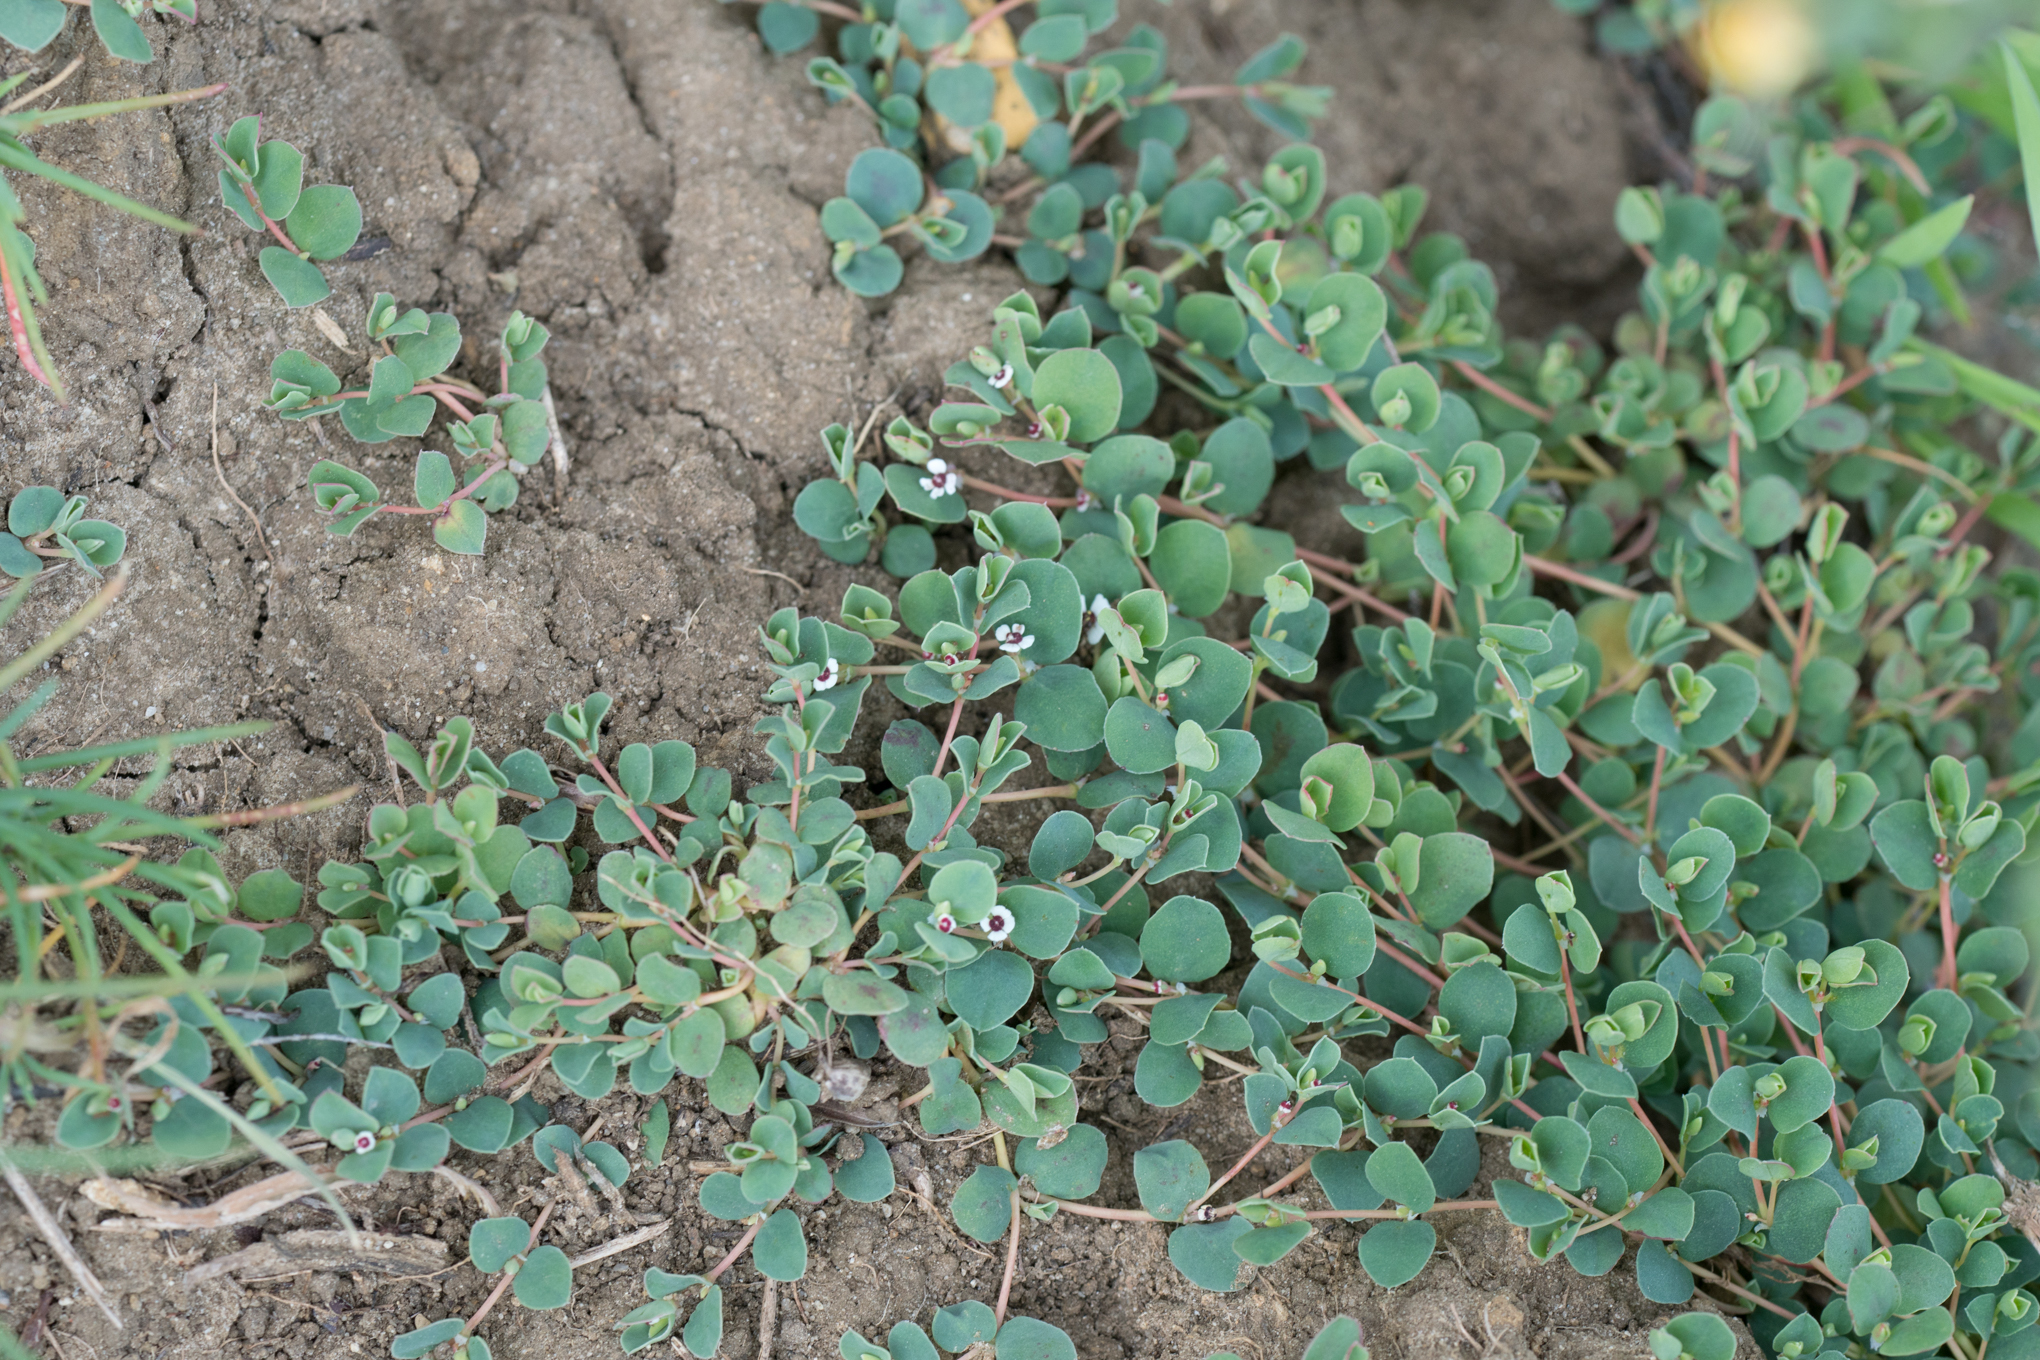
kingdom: Plantae
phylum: Tracheophyta
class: Magnoliopsida
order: Malpighiales
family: Euphorbiaceae
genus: Euphorbia
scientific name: Euphorbia albomarginata
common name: Whitemargin sandmat
